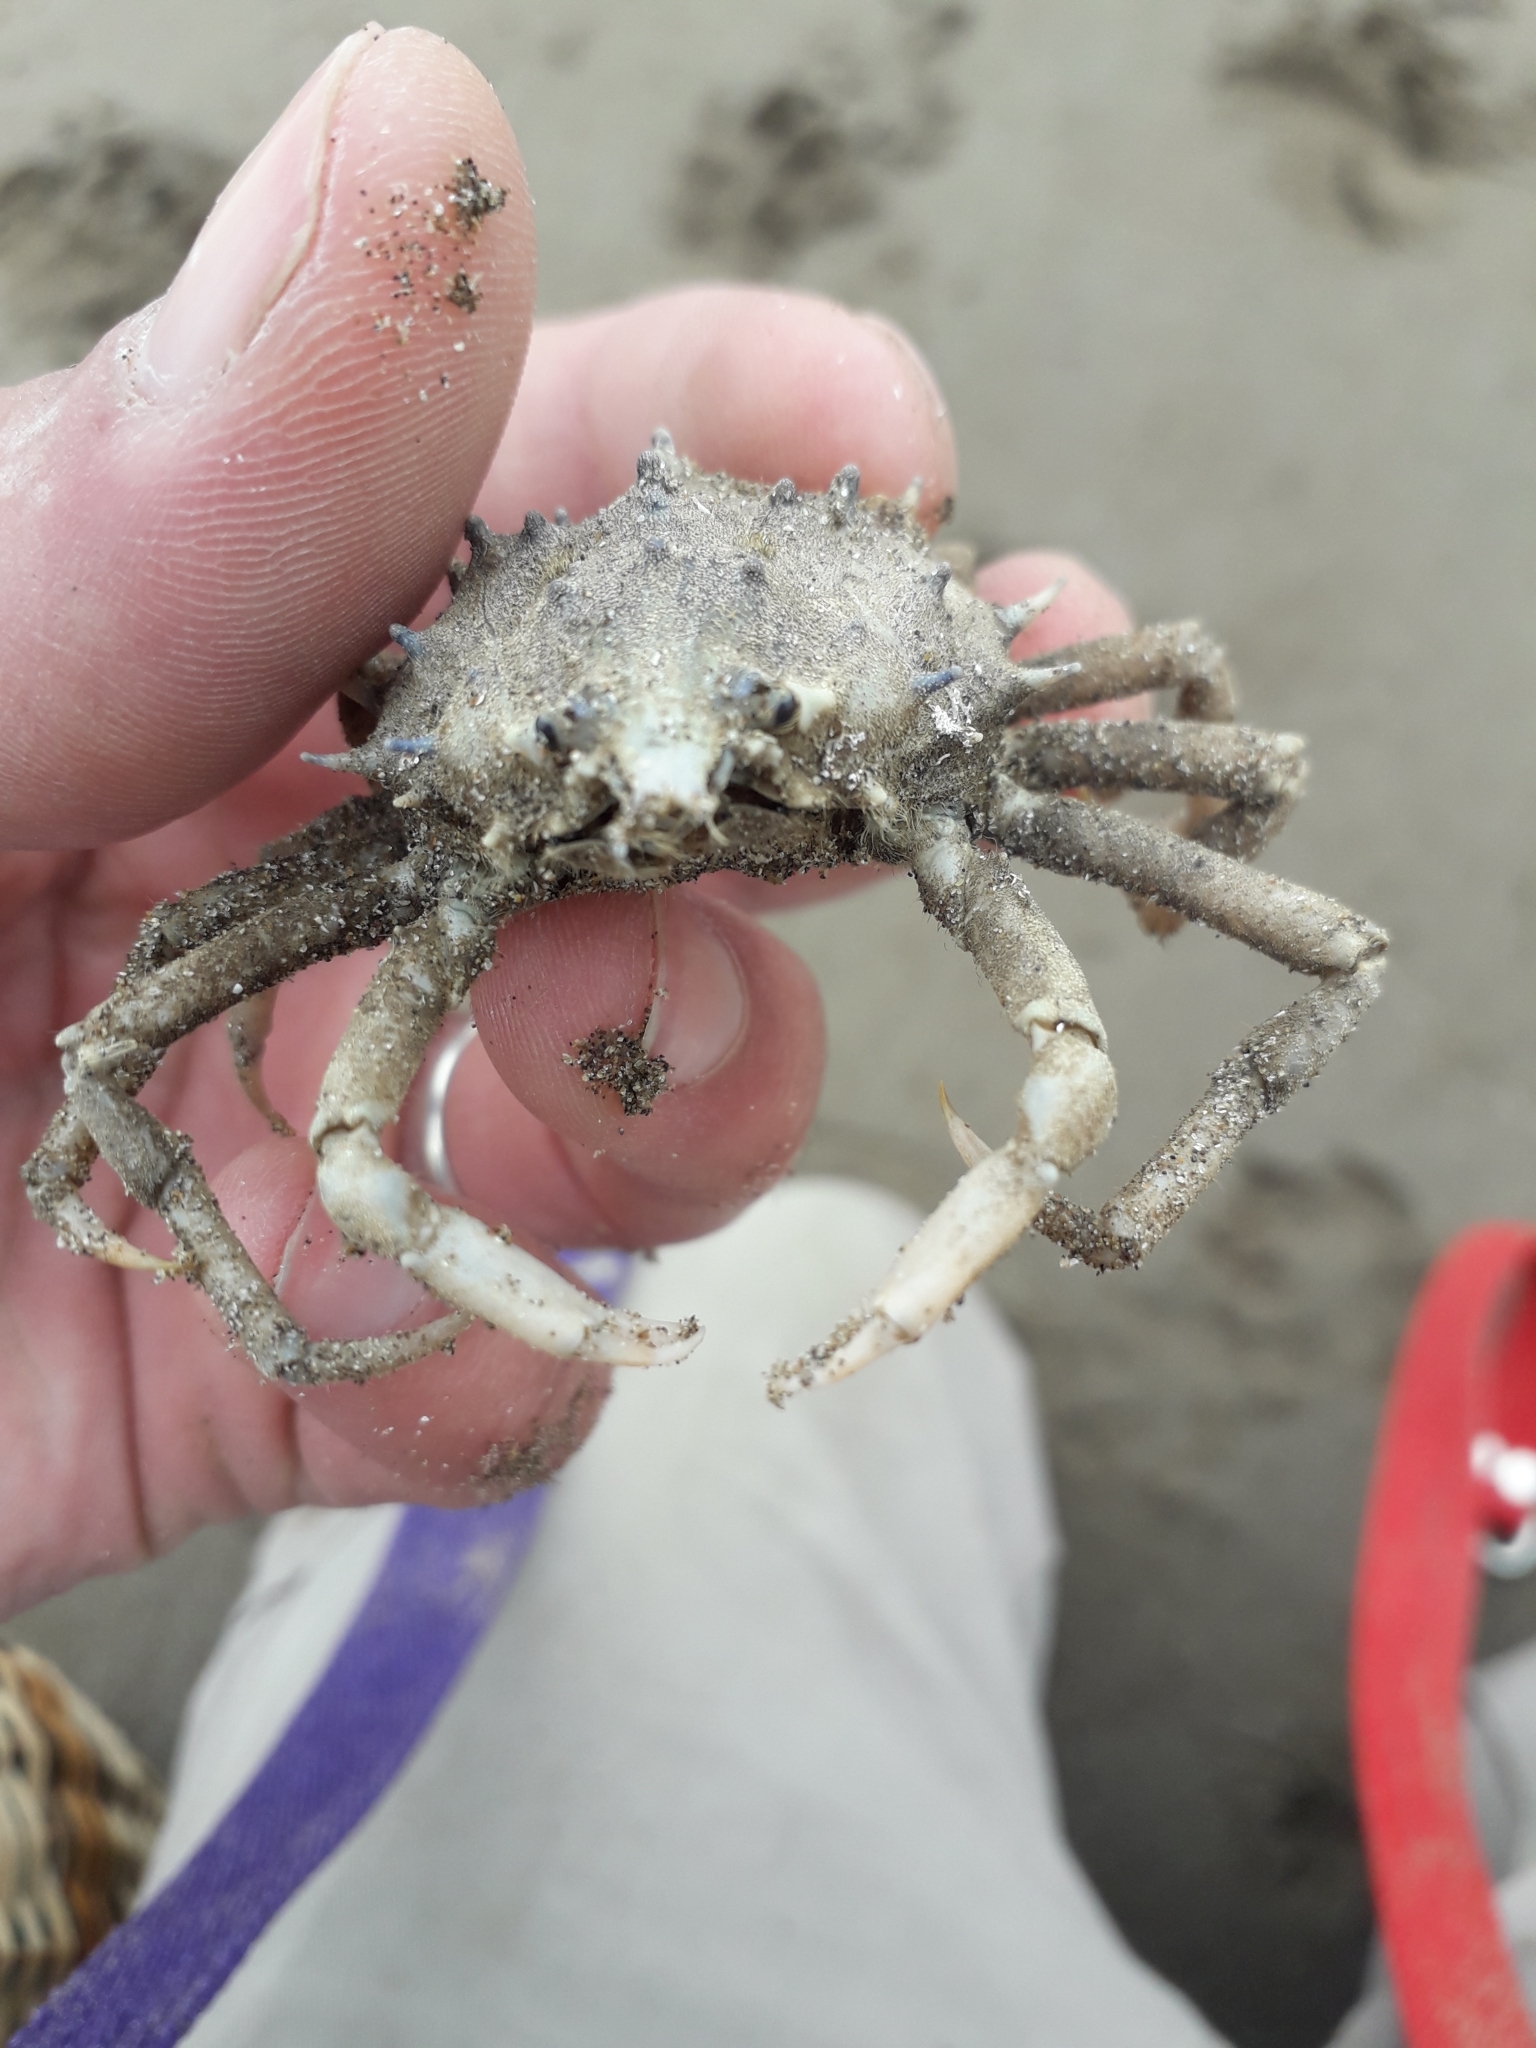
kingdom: Animalia
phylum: Arthropoda
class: Malacostraca
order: Decapoda
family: Epialtidae
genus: Libinia
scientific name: Libinia spinosa
